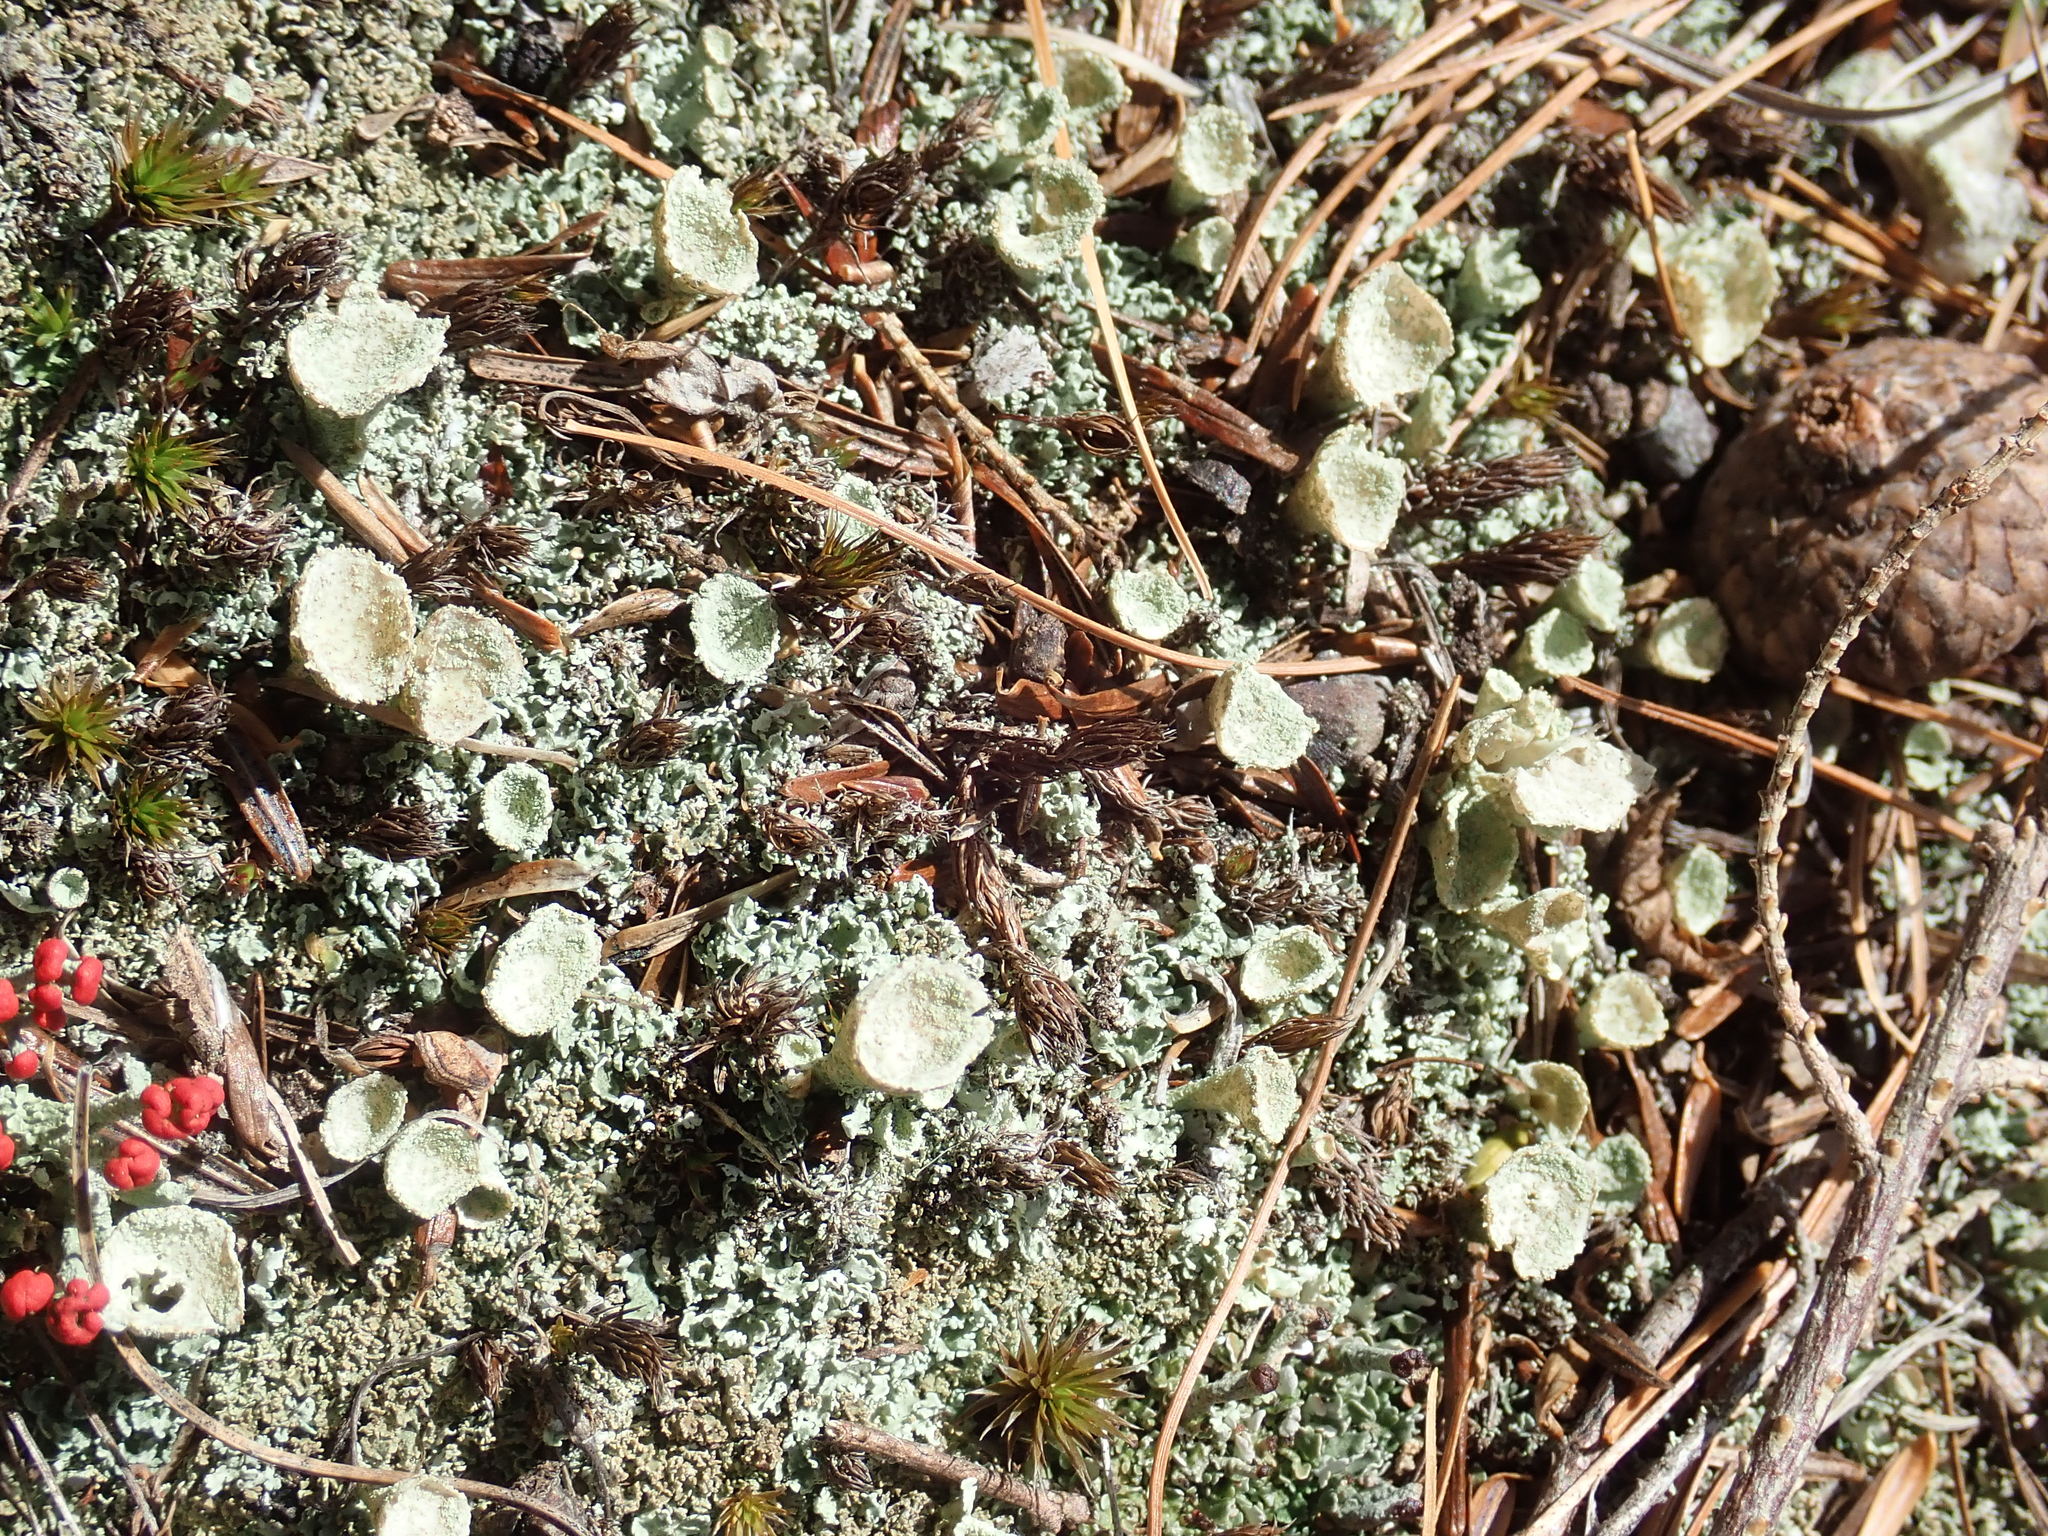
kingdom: Fungi
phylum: Ascomycota
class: Lecanoromycetes
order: Lecanorales
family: Cladoniaceae
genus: Cladonia
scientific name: Cladonia
